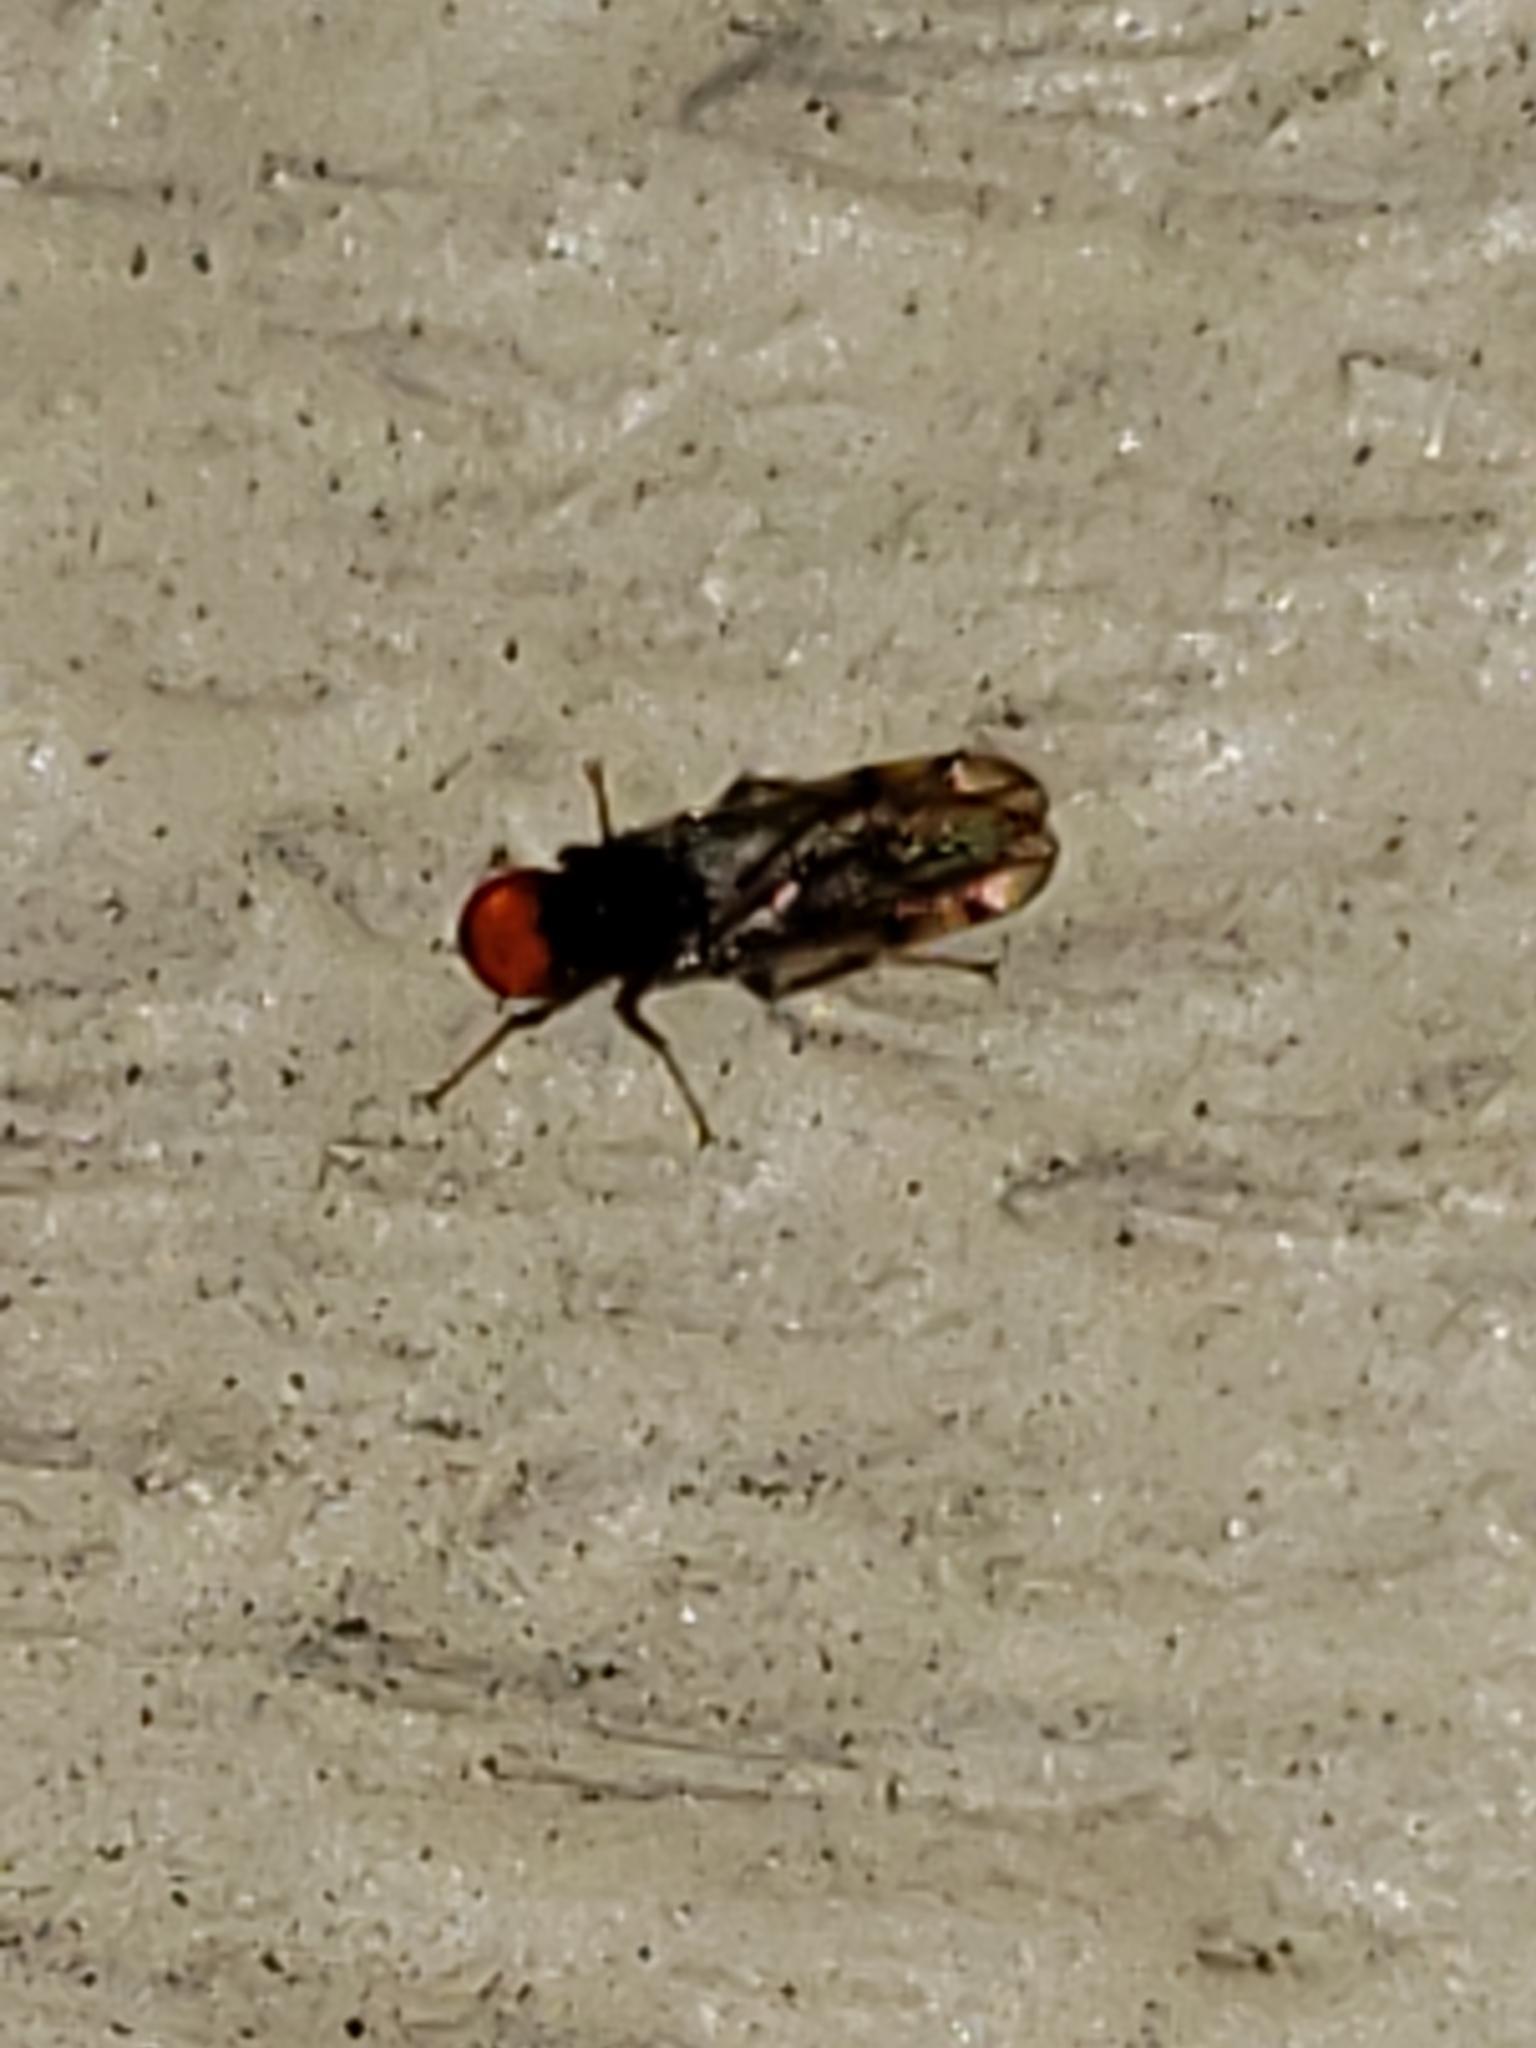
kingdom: Animalia
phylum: Arthropoda
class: Insecta
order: Diptera
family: Hybotidae
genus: Syneches
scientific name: Syneches simplex
